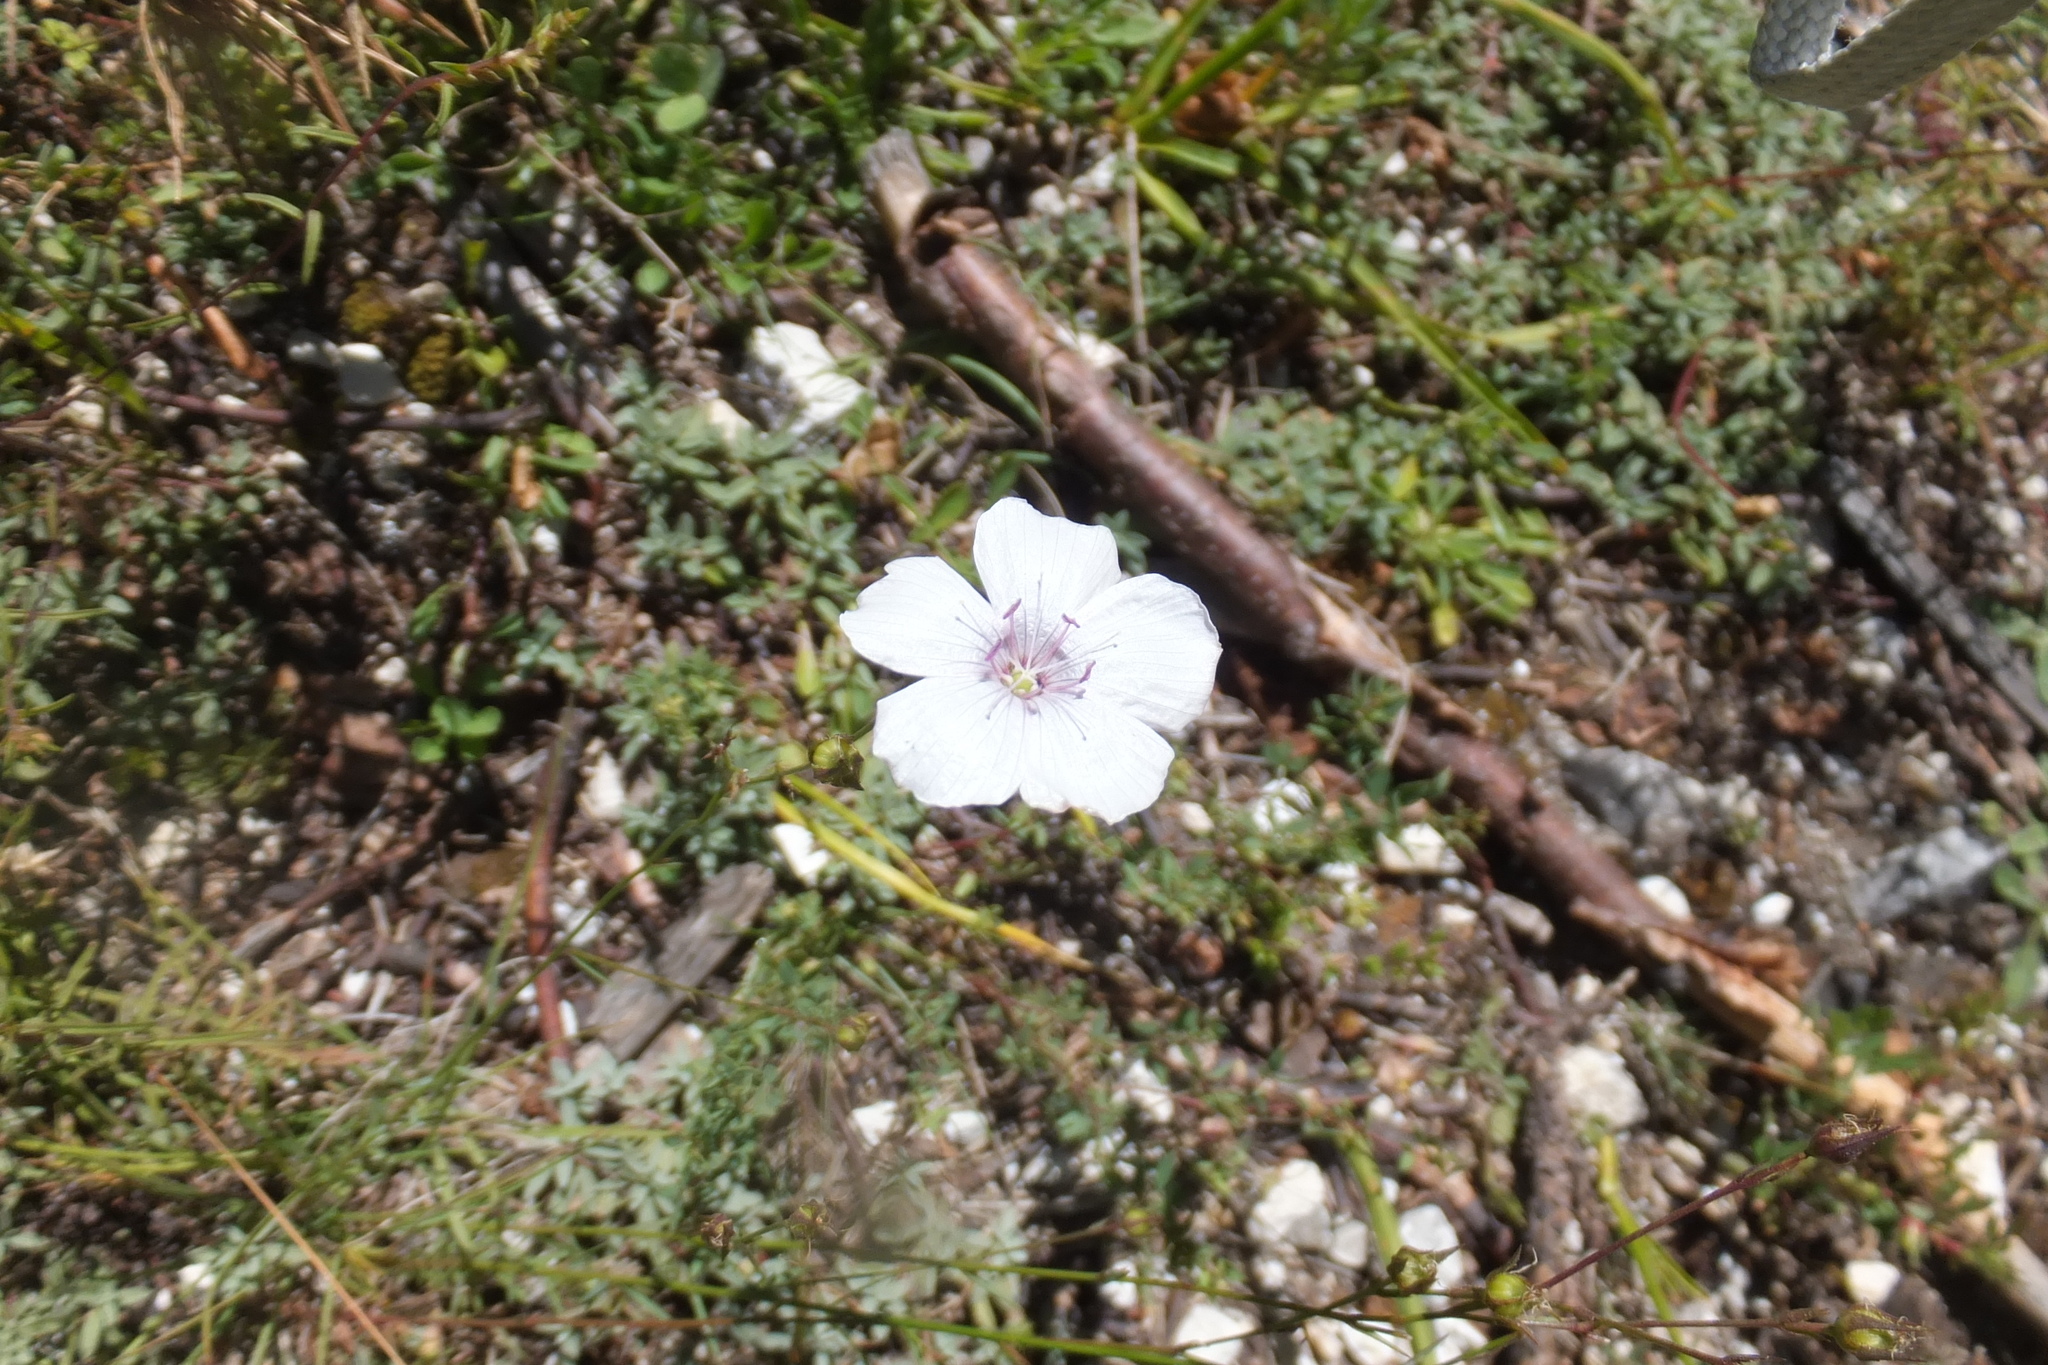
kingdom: Plantae
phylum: Tracheophyta
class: Magnoliopsida
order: Malpighiales
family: Linaceae
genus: Linum
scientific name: Linum tenuifolium
